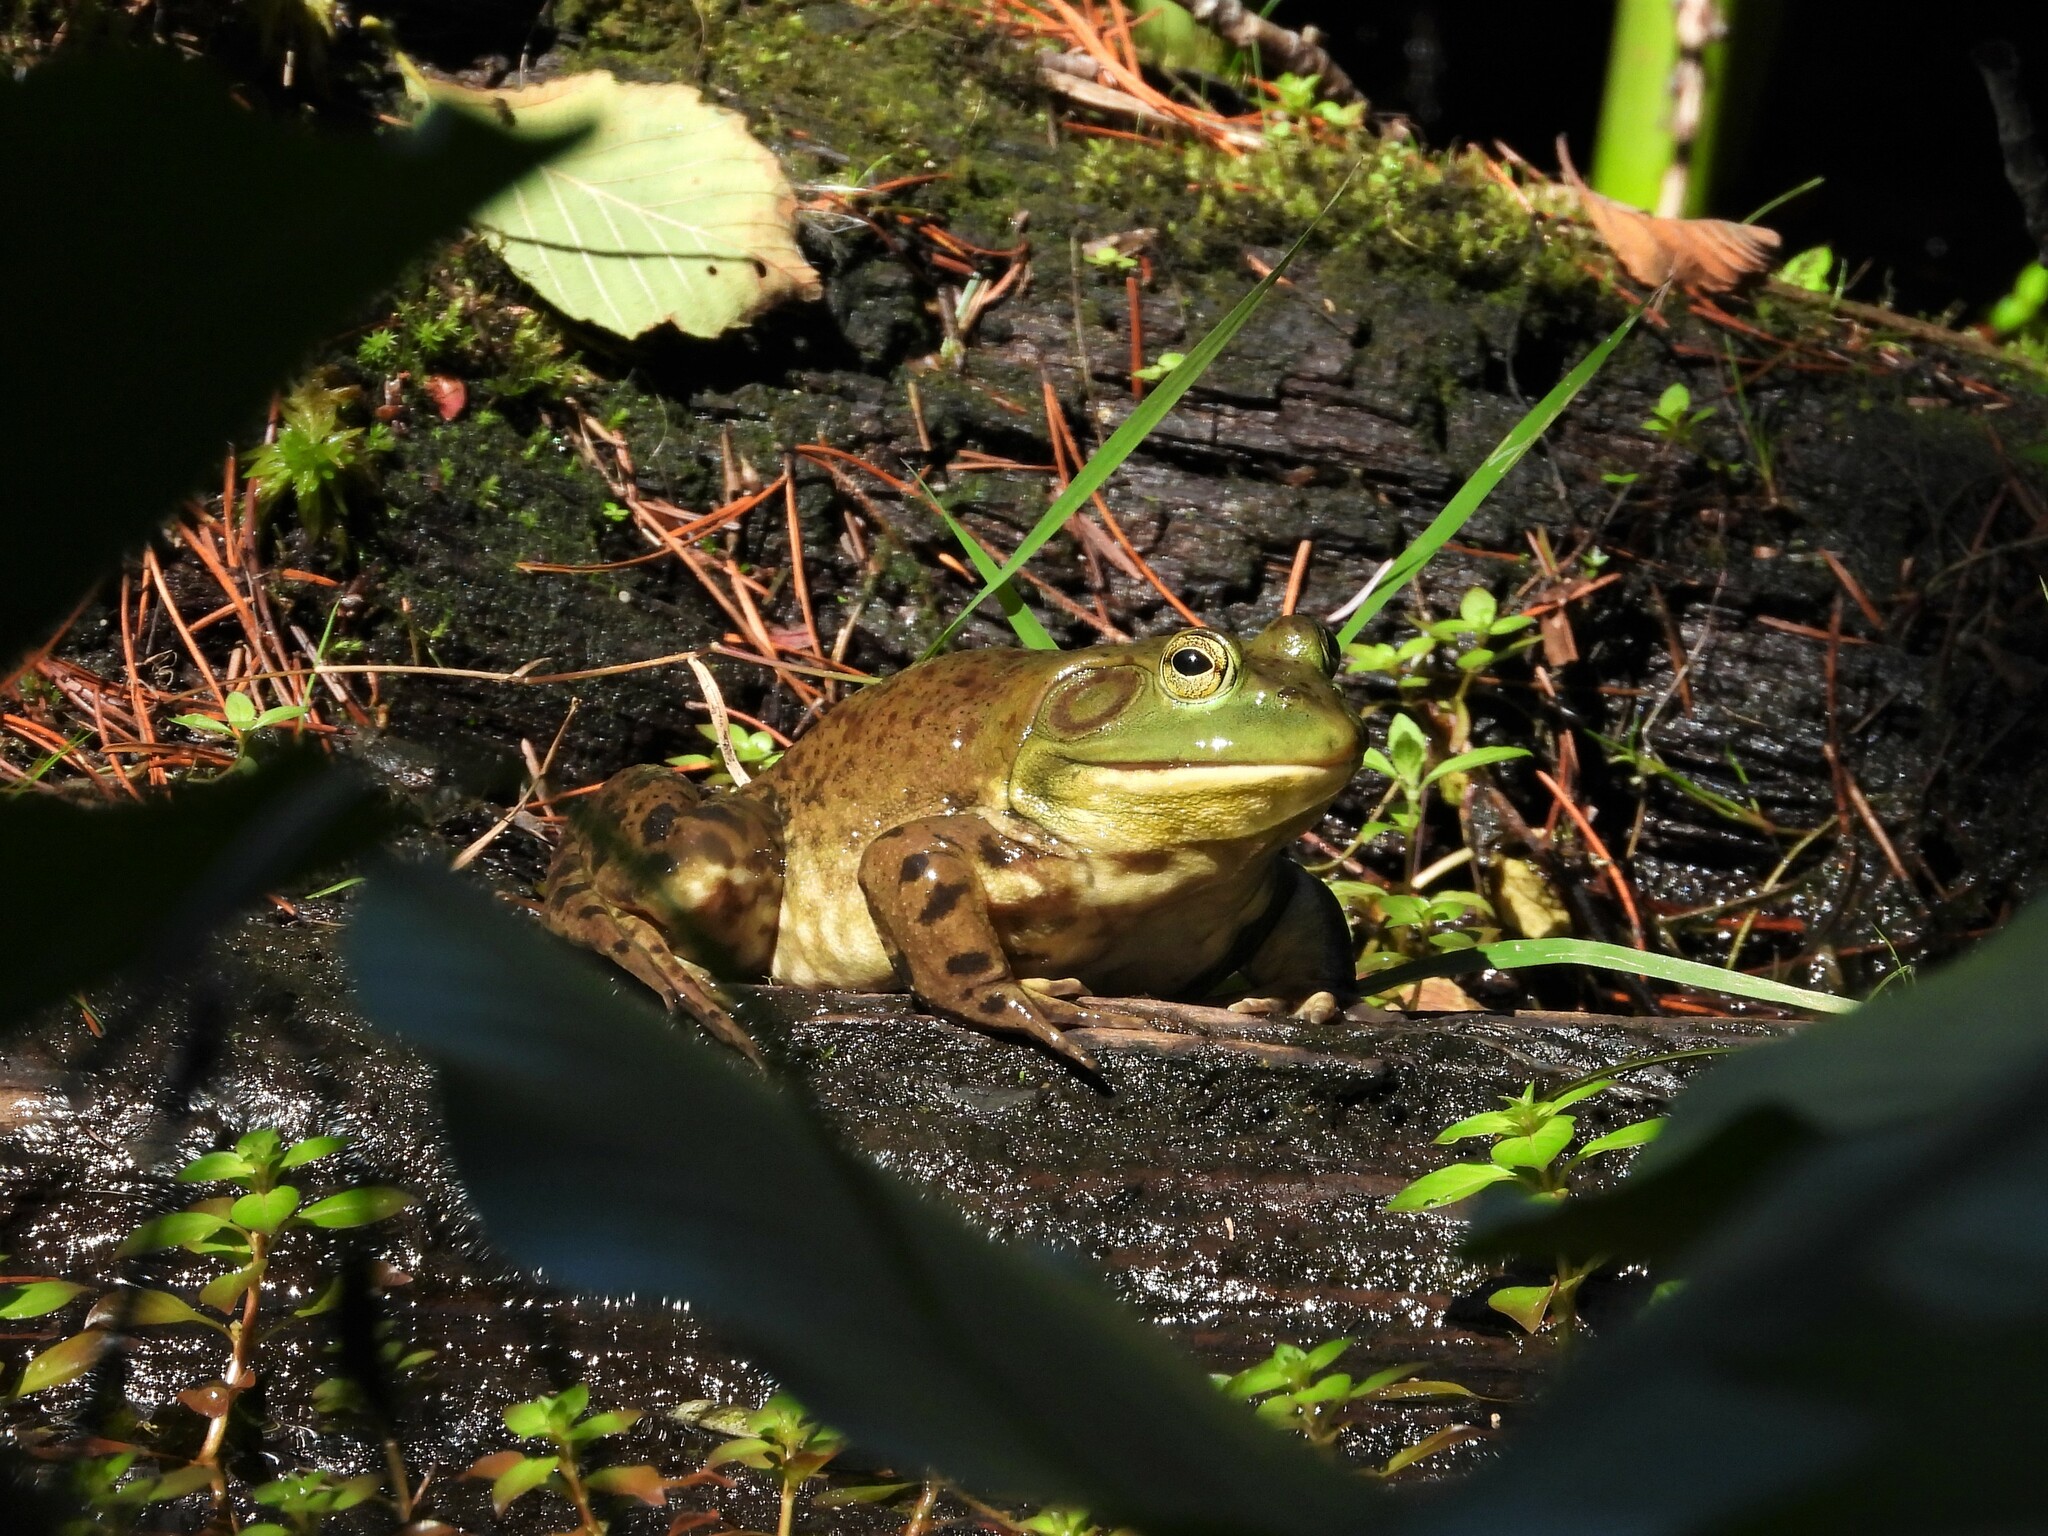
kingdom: Animalia
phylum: Chordata
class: Amphibia
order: Anura
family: Ranidae
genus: Lithobates
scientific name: Lithobates catesbeianus
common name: American bullfrog
